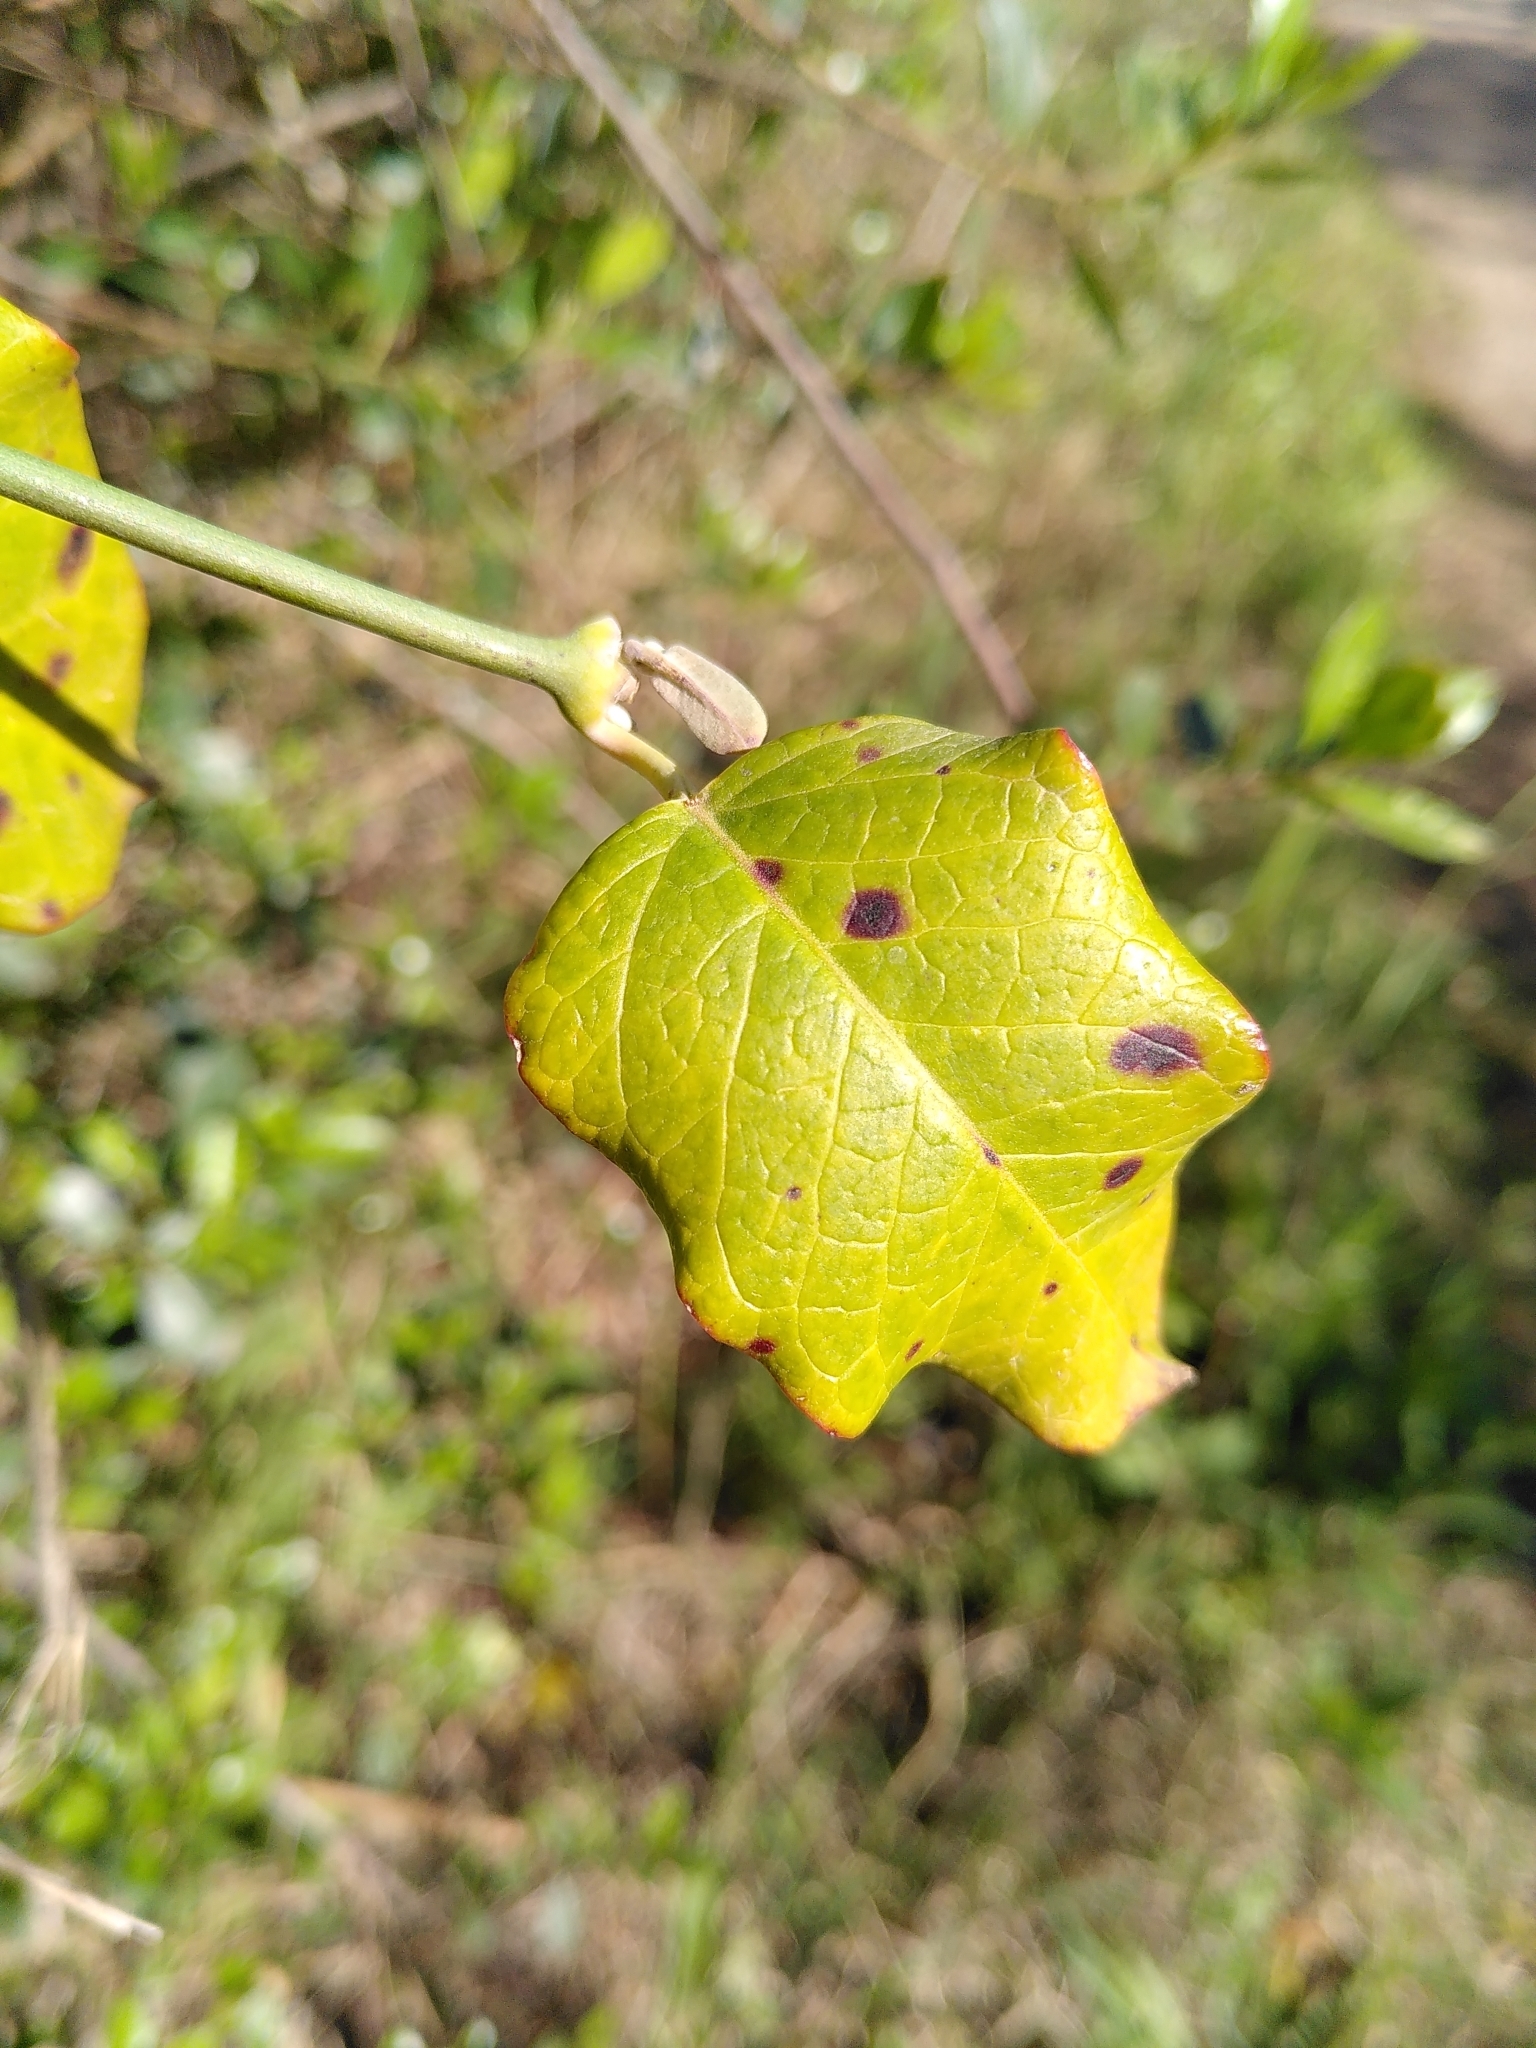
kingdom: Plantae
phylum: Tracheophyta
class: Magnoliopsida
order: Gentianales
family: Apocynaceae
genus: Araujia
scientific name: Araujia sericifera
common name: White bladderflower
